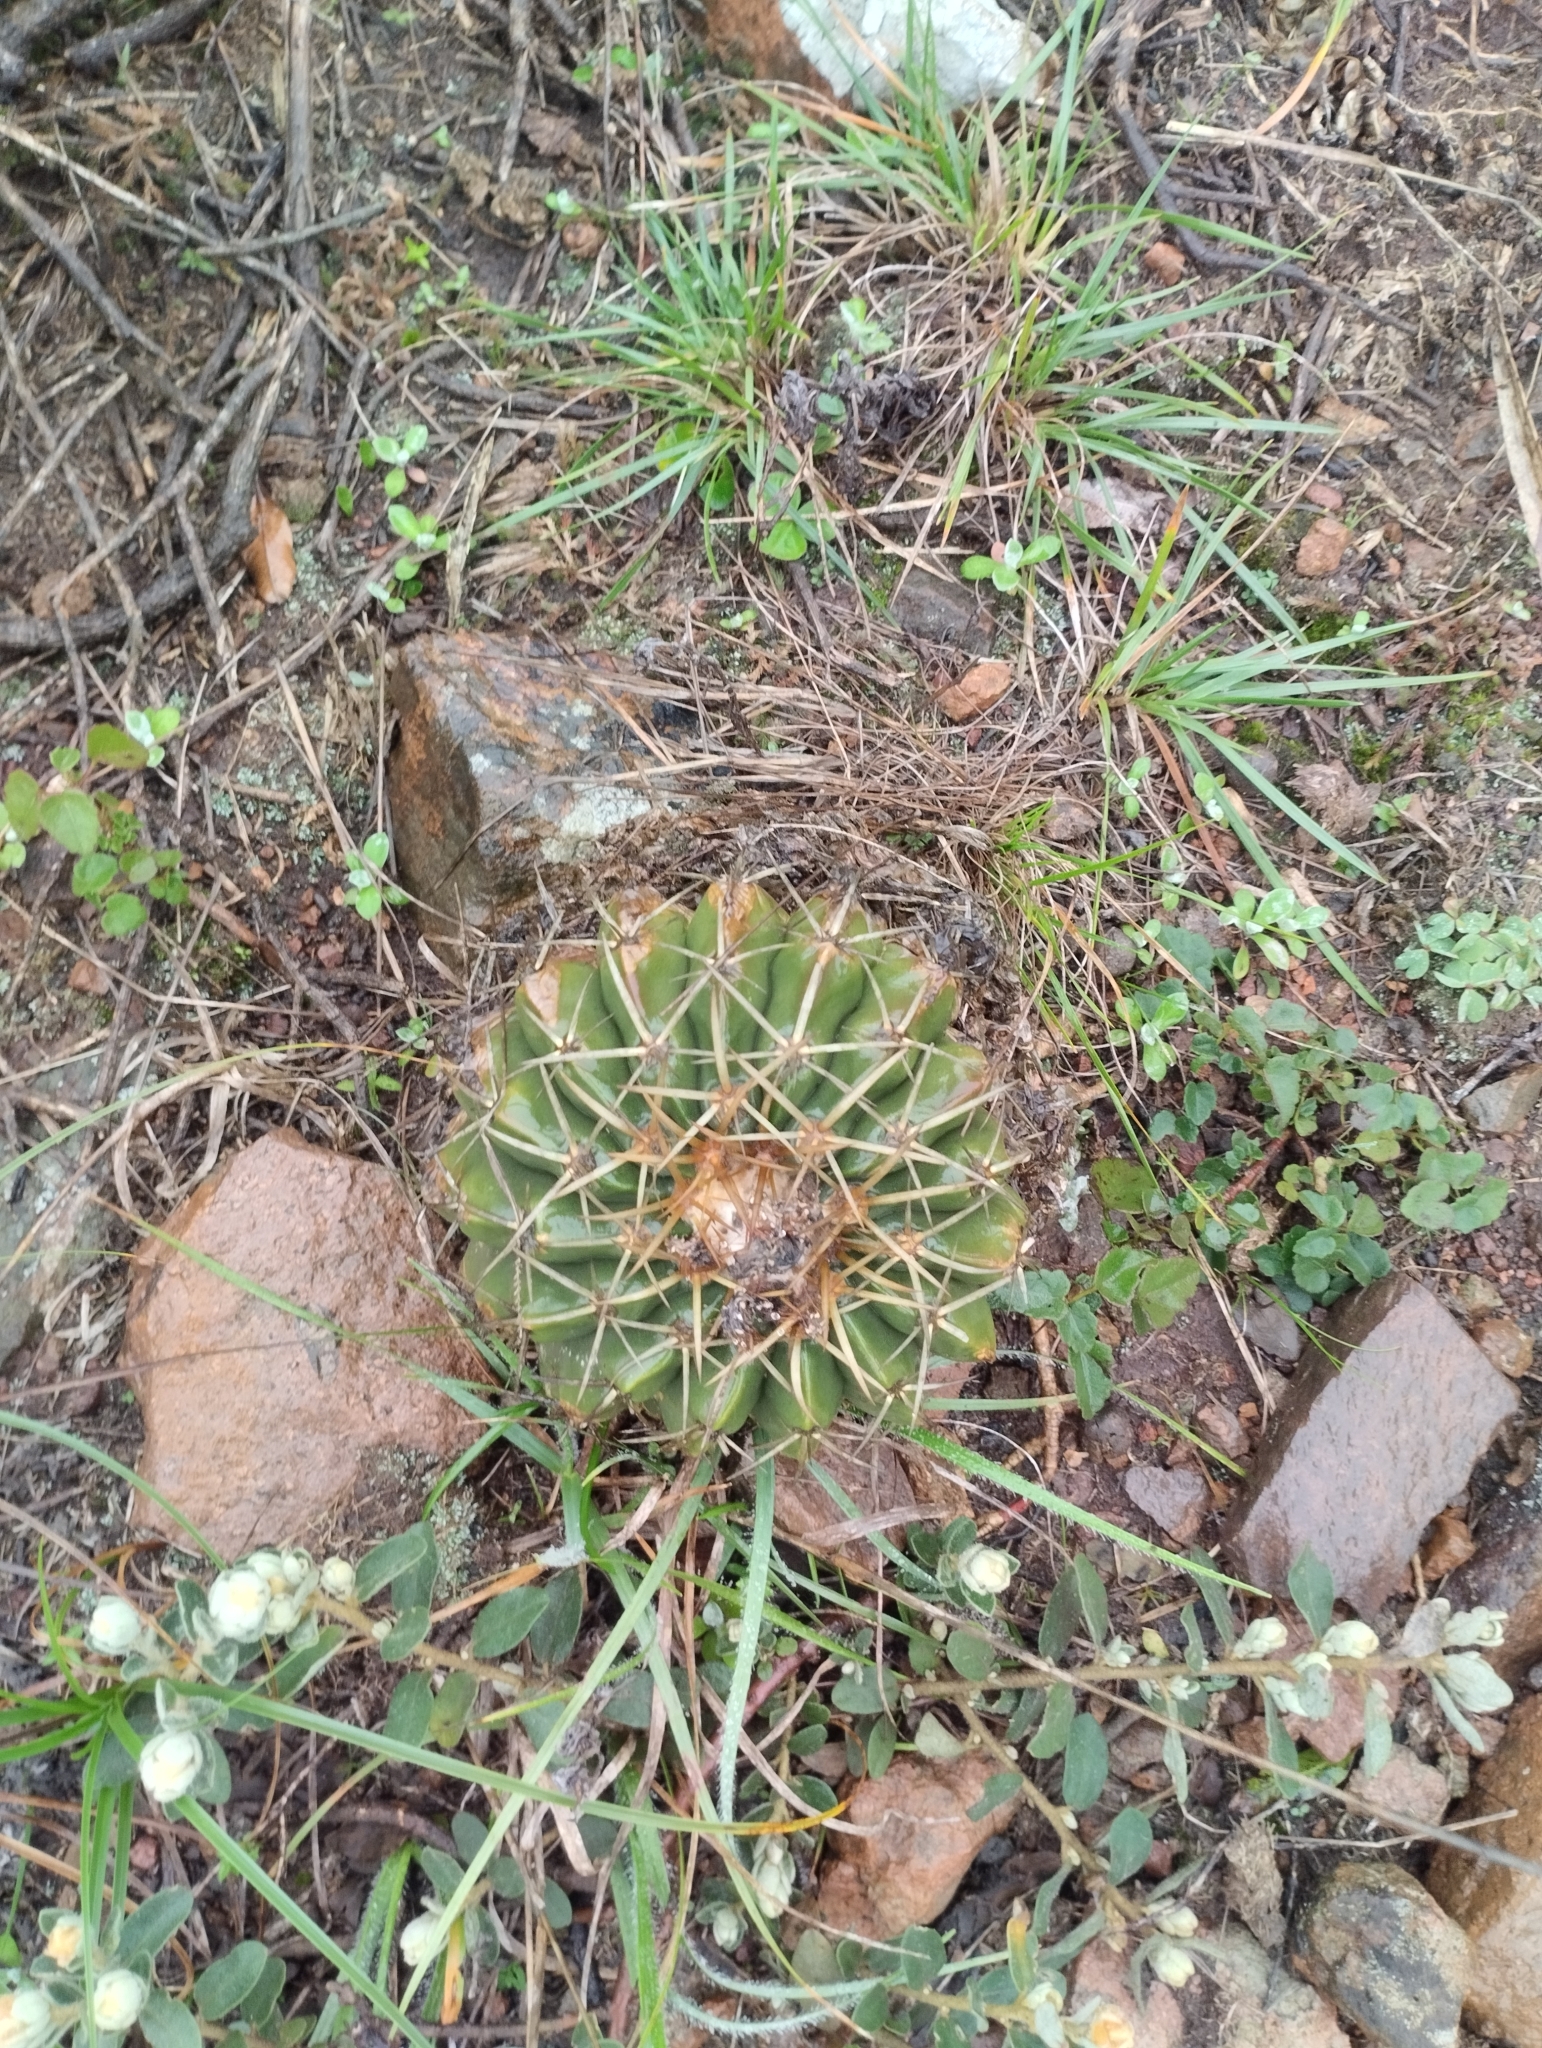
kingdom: Plantae
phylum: Tracheophyta
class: Magnoliopsida
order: Caryophyllales
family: Cactaceae
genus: Parodia
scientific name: Parodia erinacea
